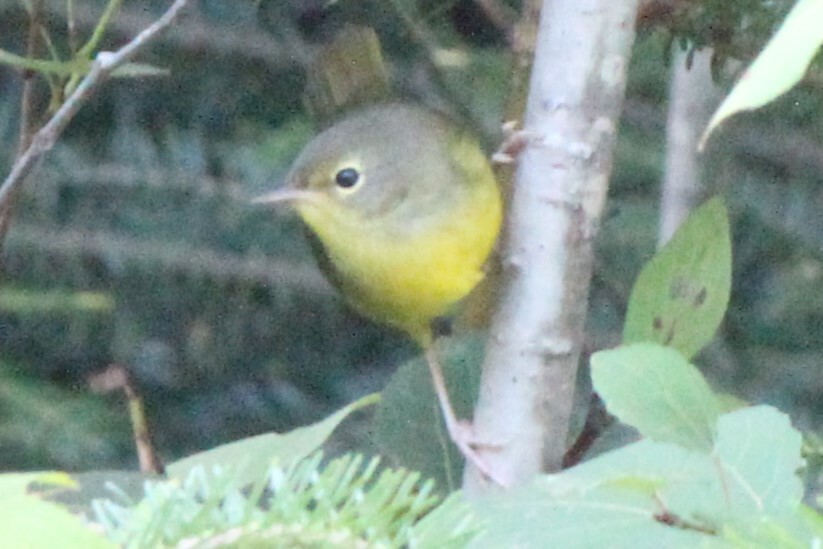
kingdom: Animalia
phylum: Chordata
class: Aves
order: Passeriformes
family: Parulidae
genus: Leiothlypis
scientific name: Leiothlypis ruficapilla
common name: Nashville warbler
